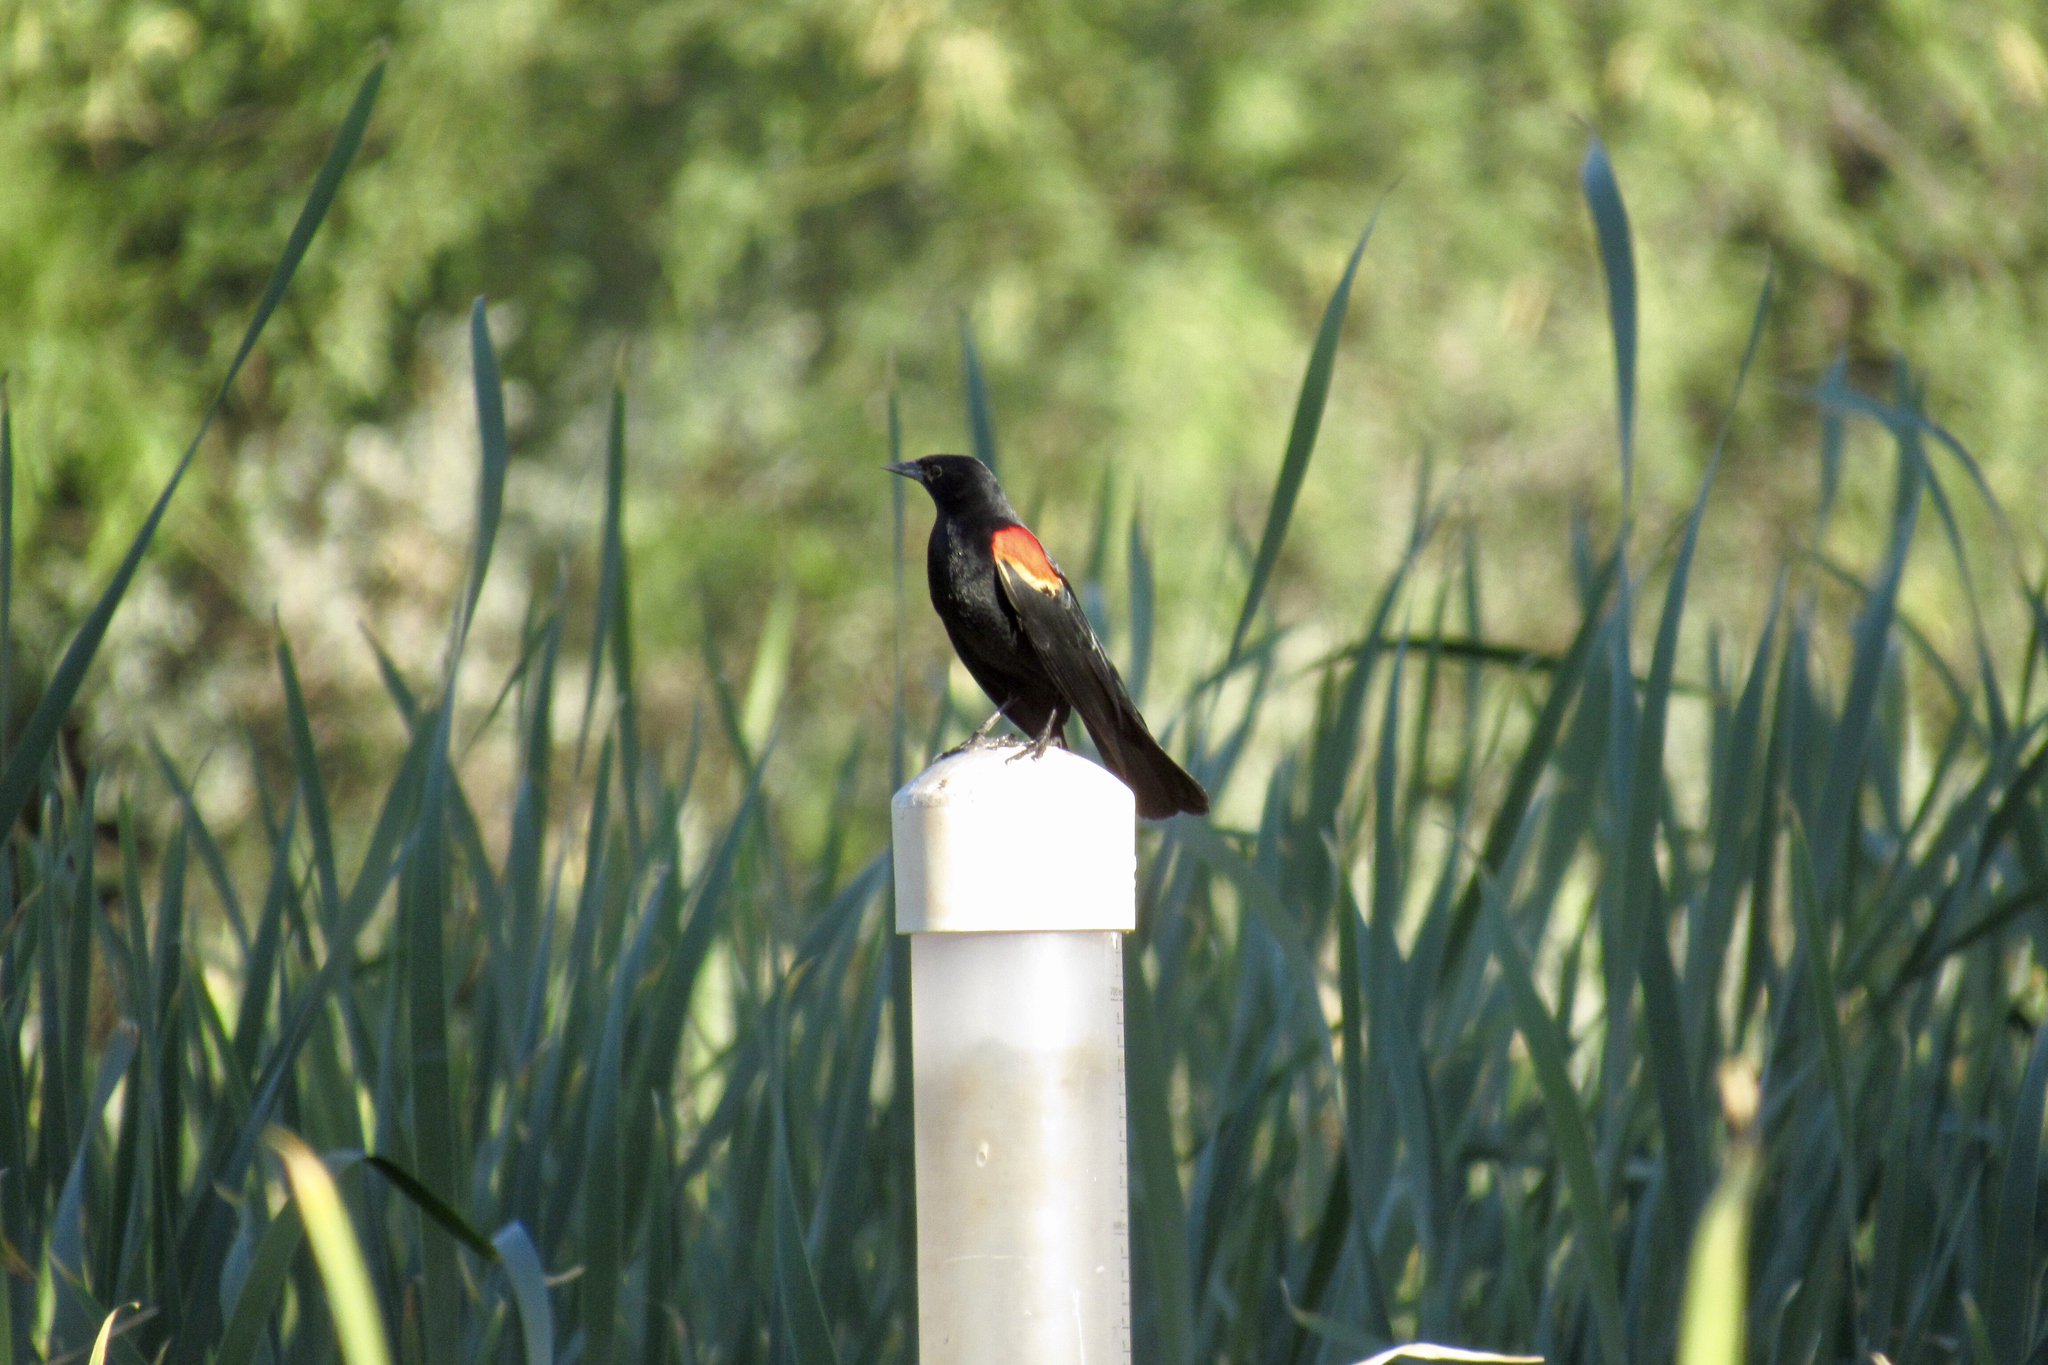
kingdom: Animalia
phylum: Chordata
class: Aves
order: Passeriformes
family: Icteridae
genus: Agelaius
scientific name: Agelaius phoeniceus
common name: Red-winged blackbird
